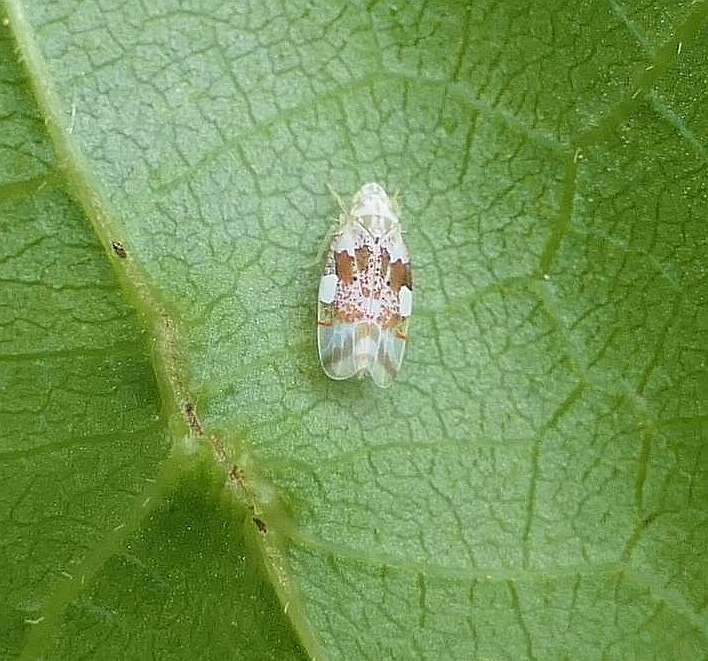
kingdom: Animalia
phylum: Arthropoda
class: Insecta
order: Hemiptera
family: Cicadellidae
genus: Hymetta
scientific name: Hymetta balteata
